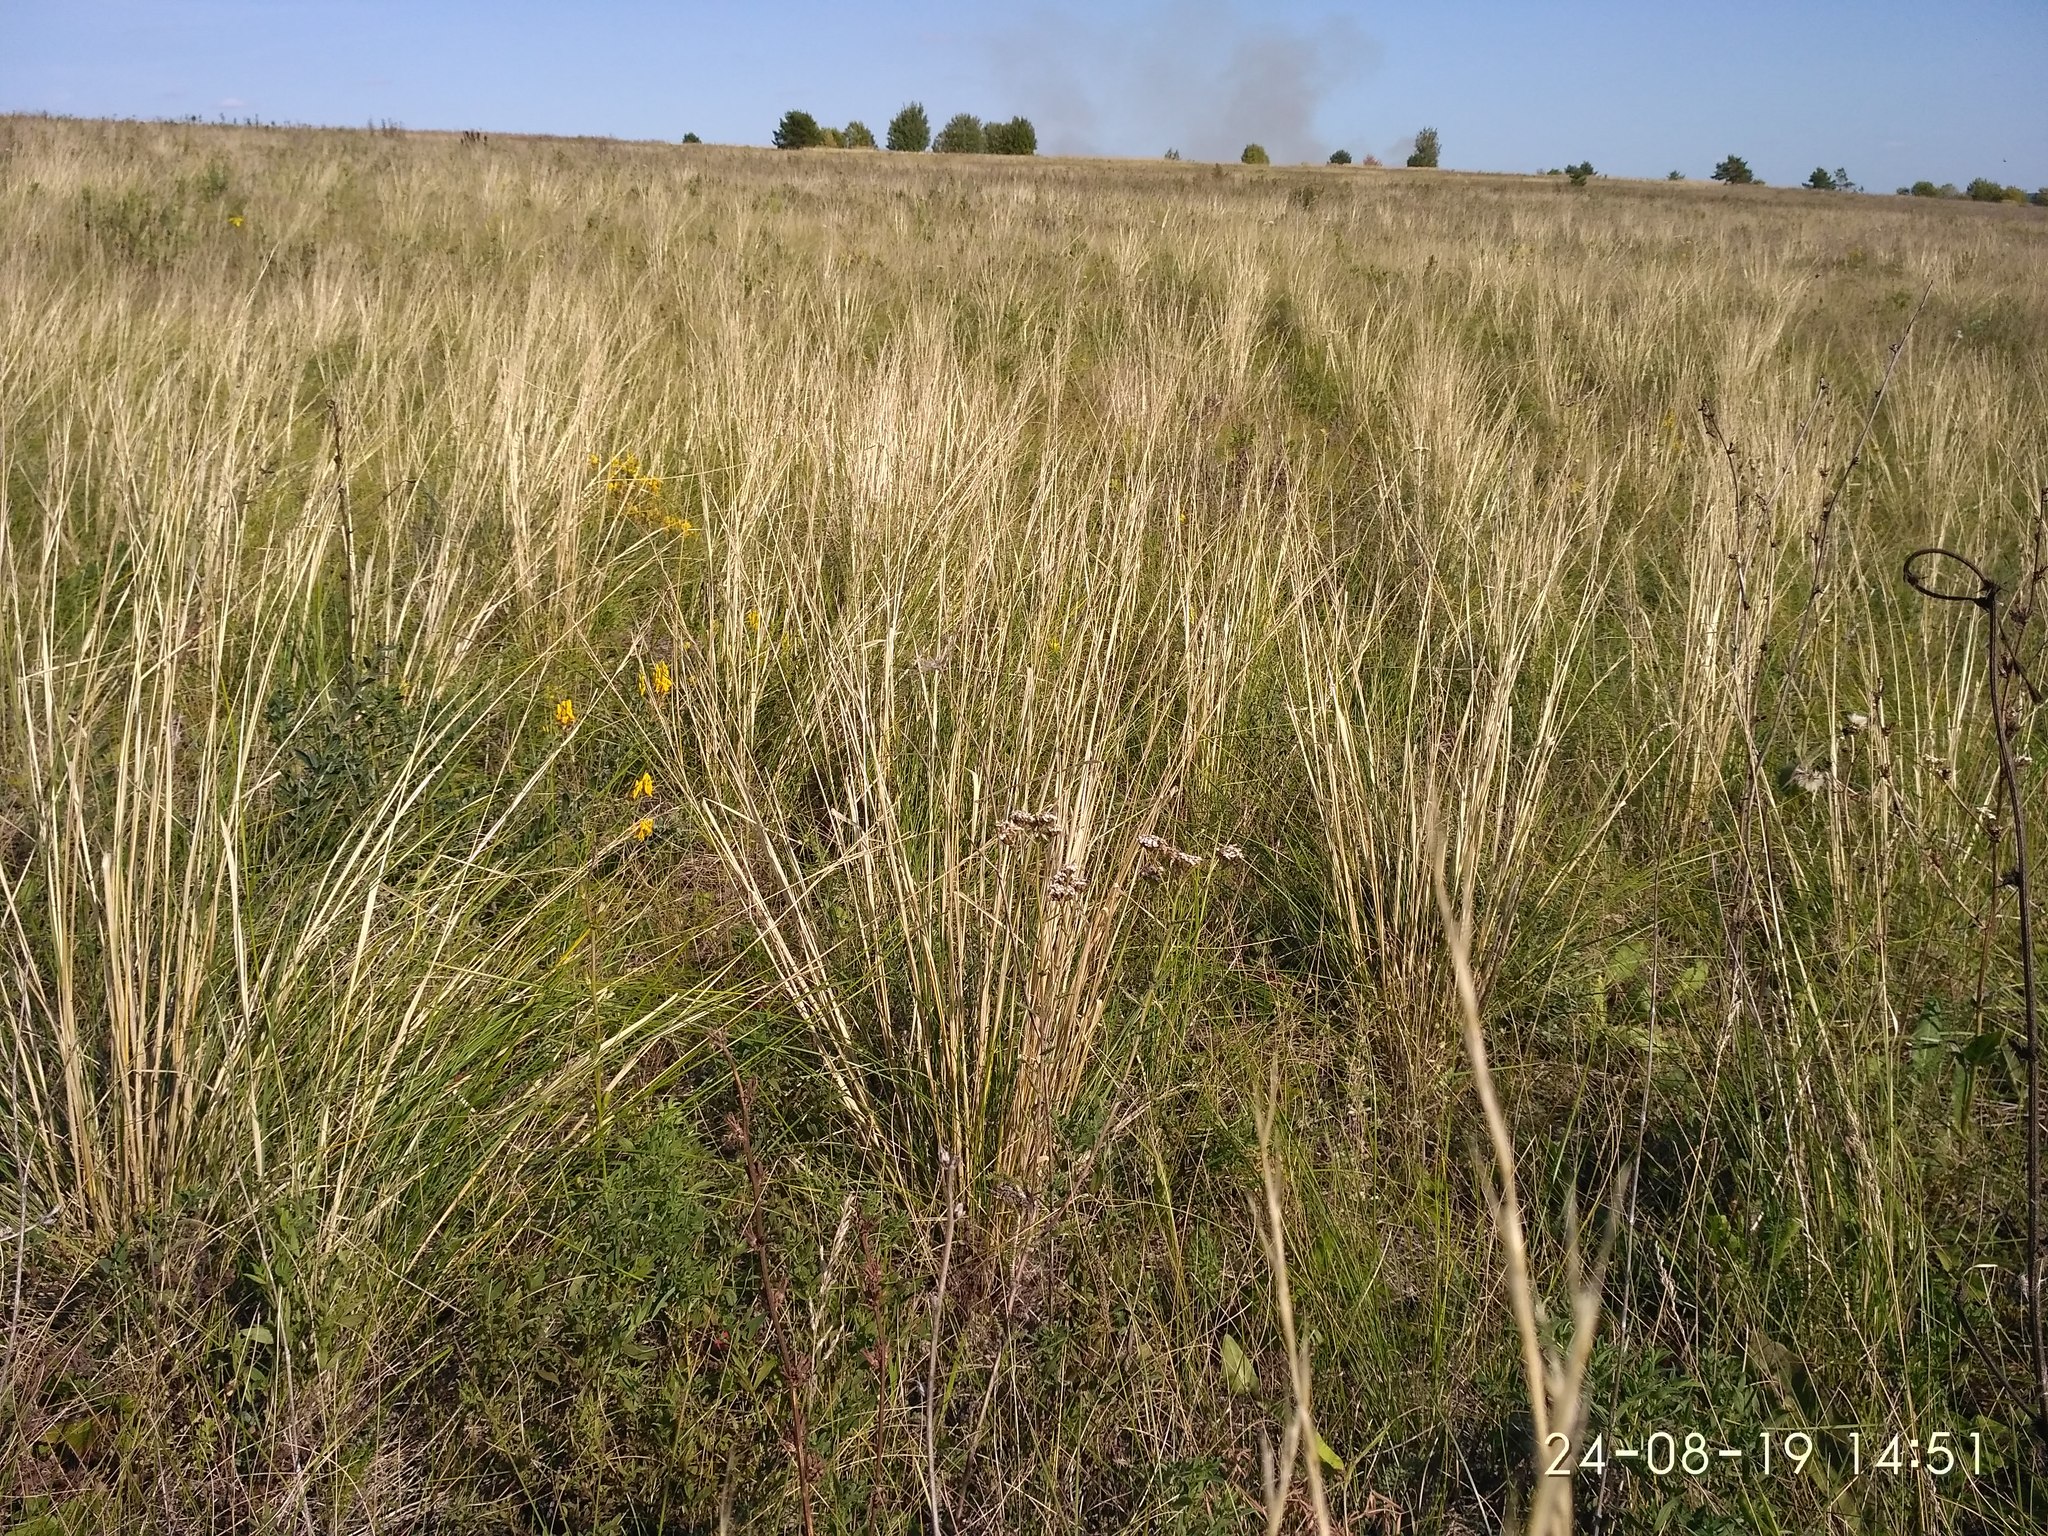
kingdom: Plantae
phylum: Tracheophyta
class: Liliopsida
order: Poales
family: Poaceae
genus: Stipa
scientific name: Stipa pennata
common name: European feather grass
